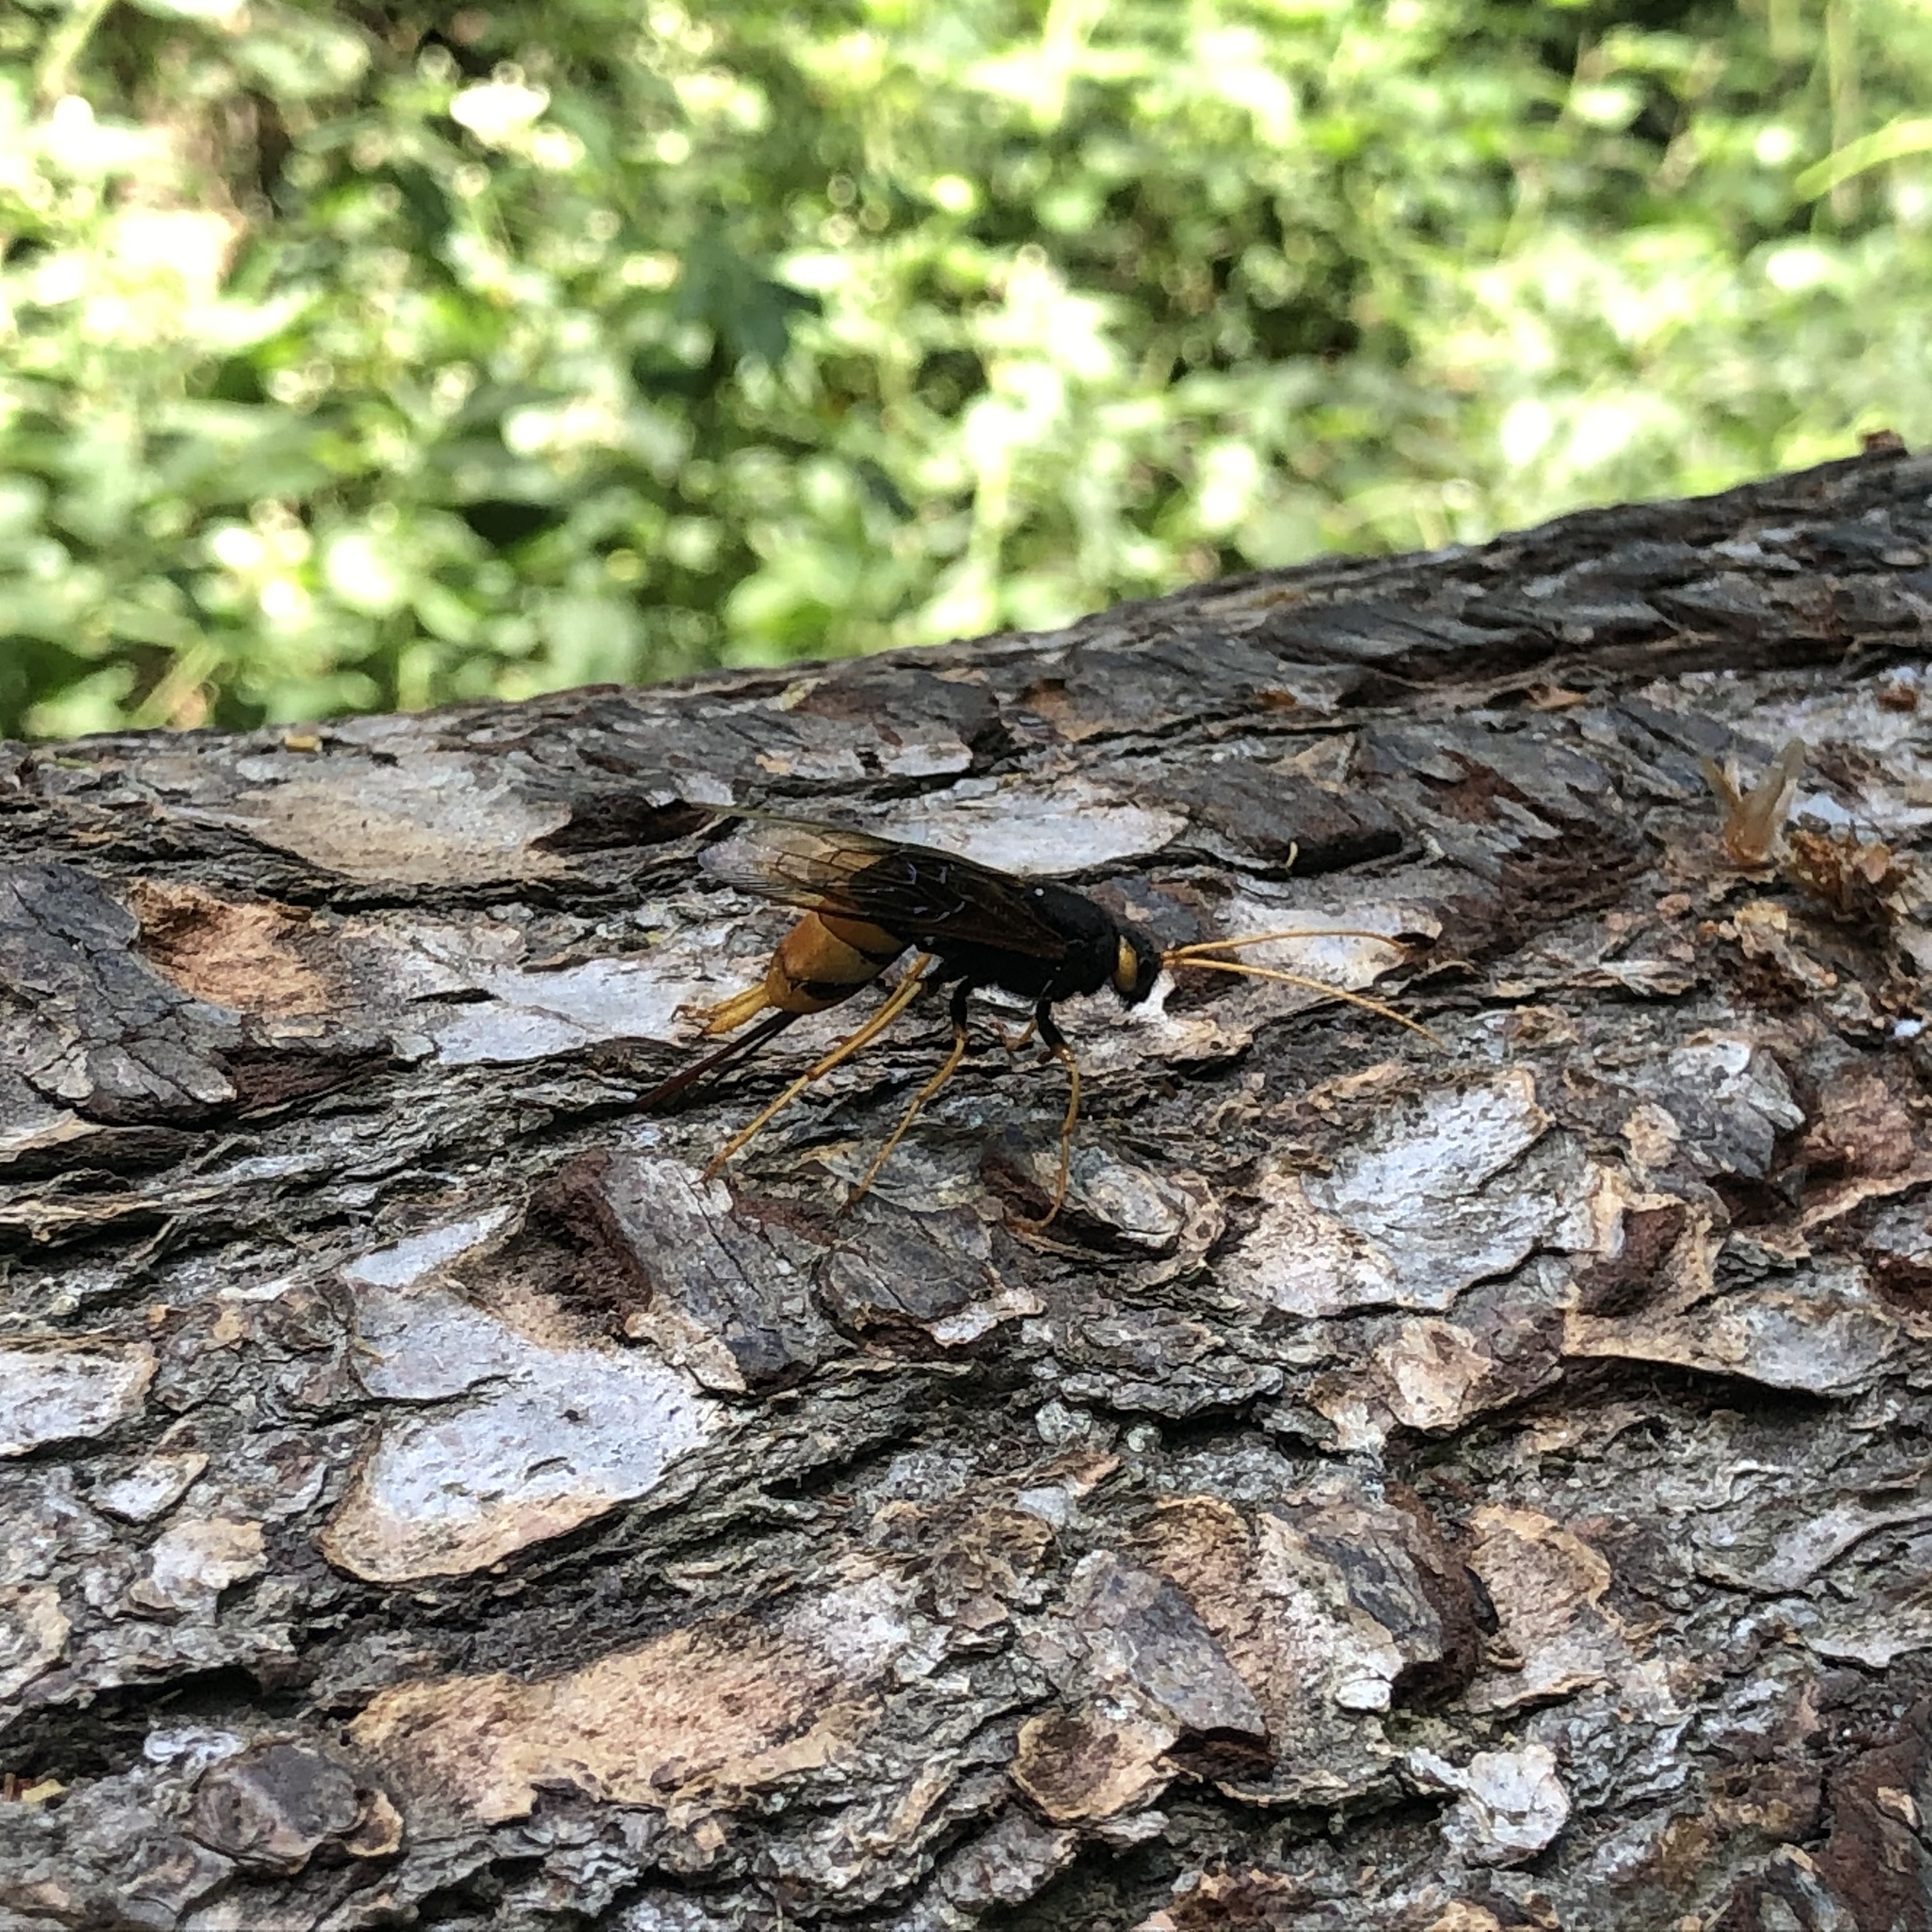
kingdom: Animalia
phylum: Arthropoda
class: Insecta
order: Hymenoptera
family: Siricidae
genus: Urocerus
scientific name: Urocerus gigas
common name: Giant woodwasp
